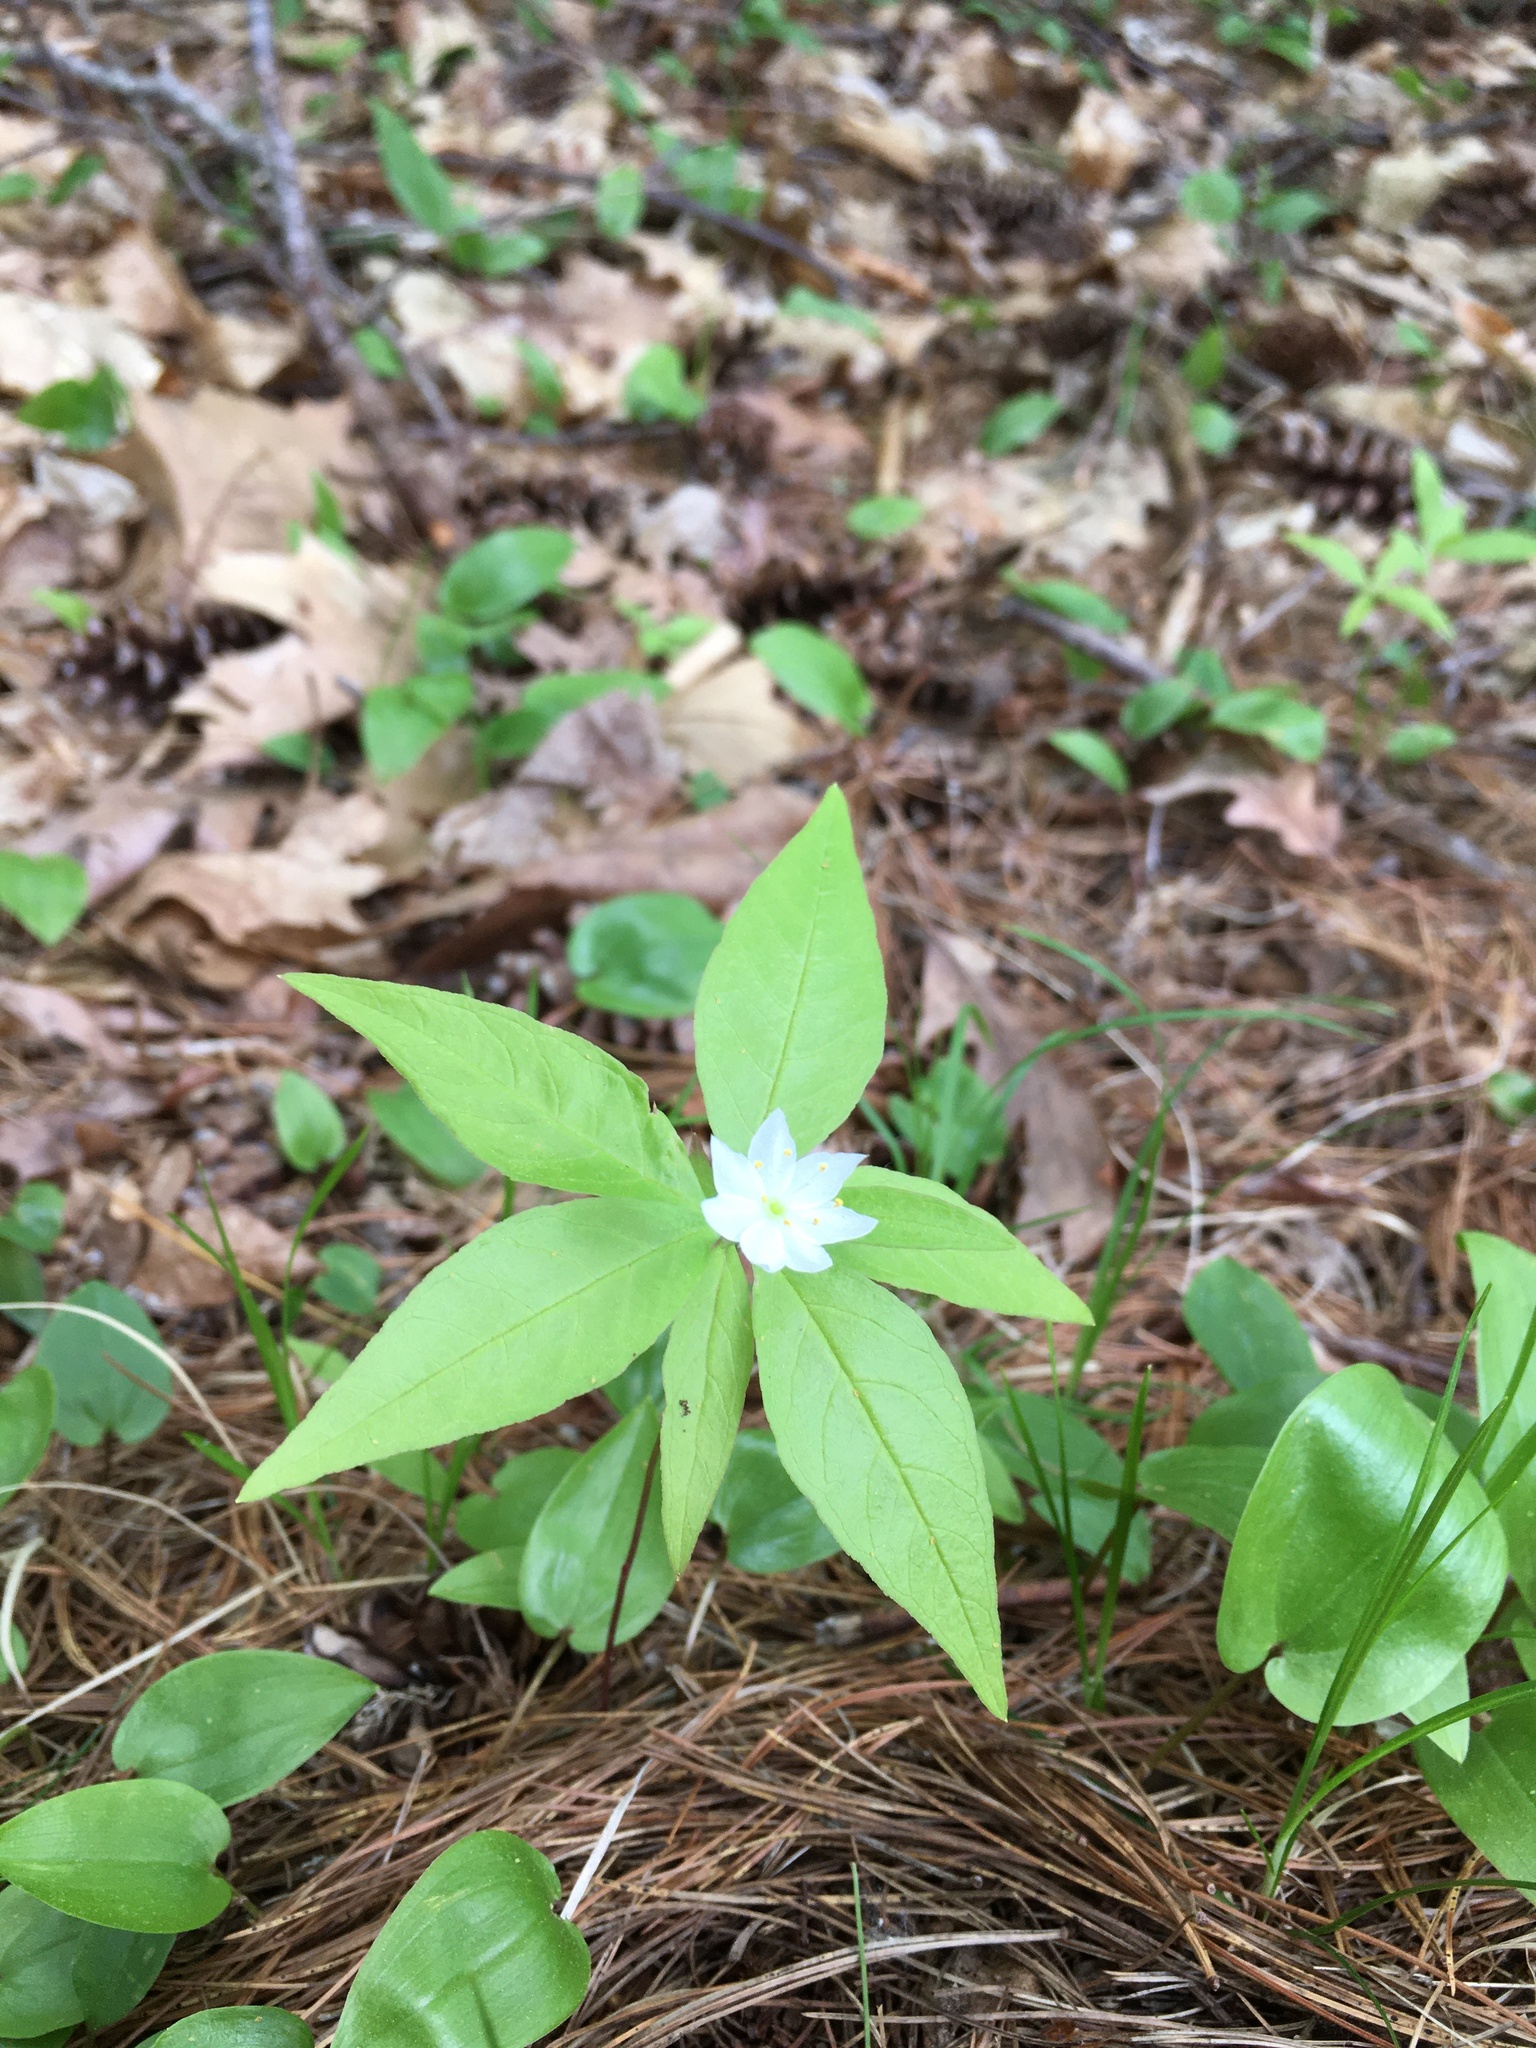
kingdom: Plantae
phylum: Tracheophyta
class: Magnoliopsida
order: Ericales
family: Primulaceae
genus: Lysimachia
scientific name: Lysimachia borealis
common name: American starflower
